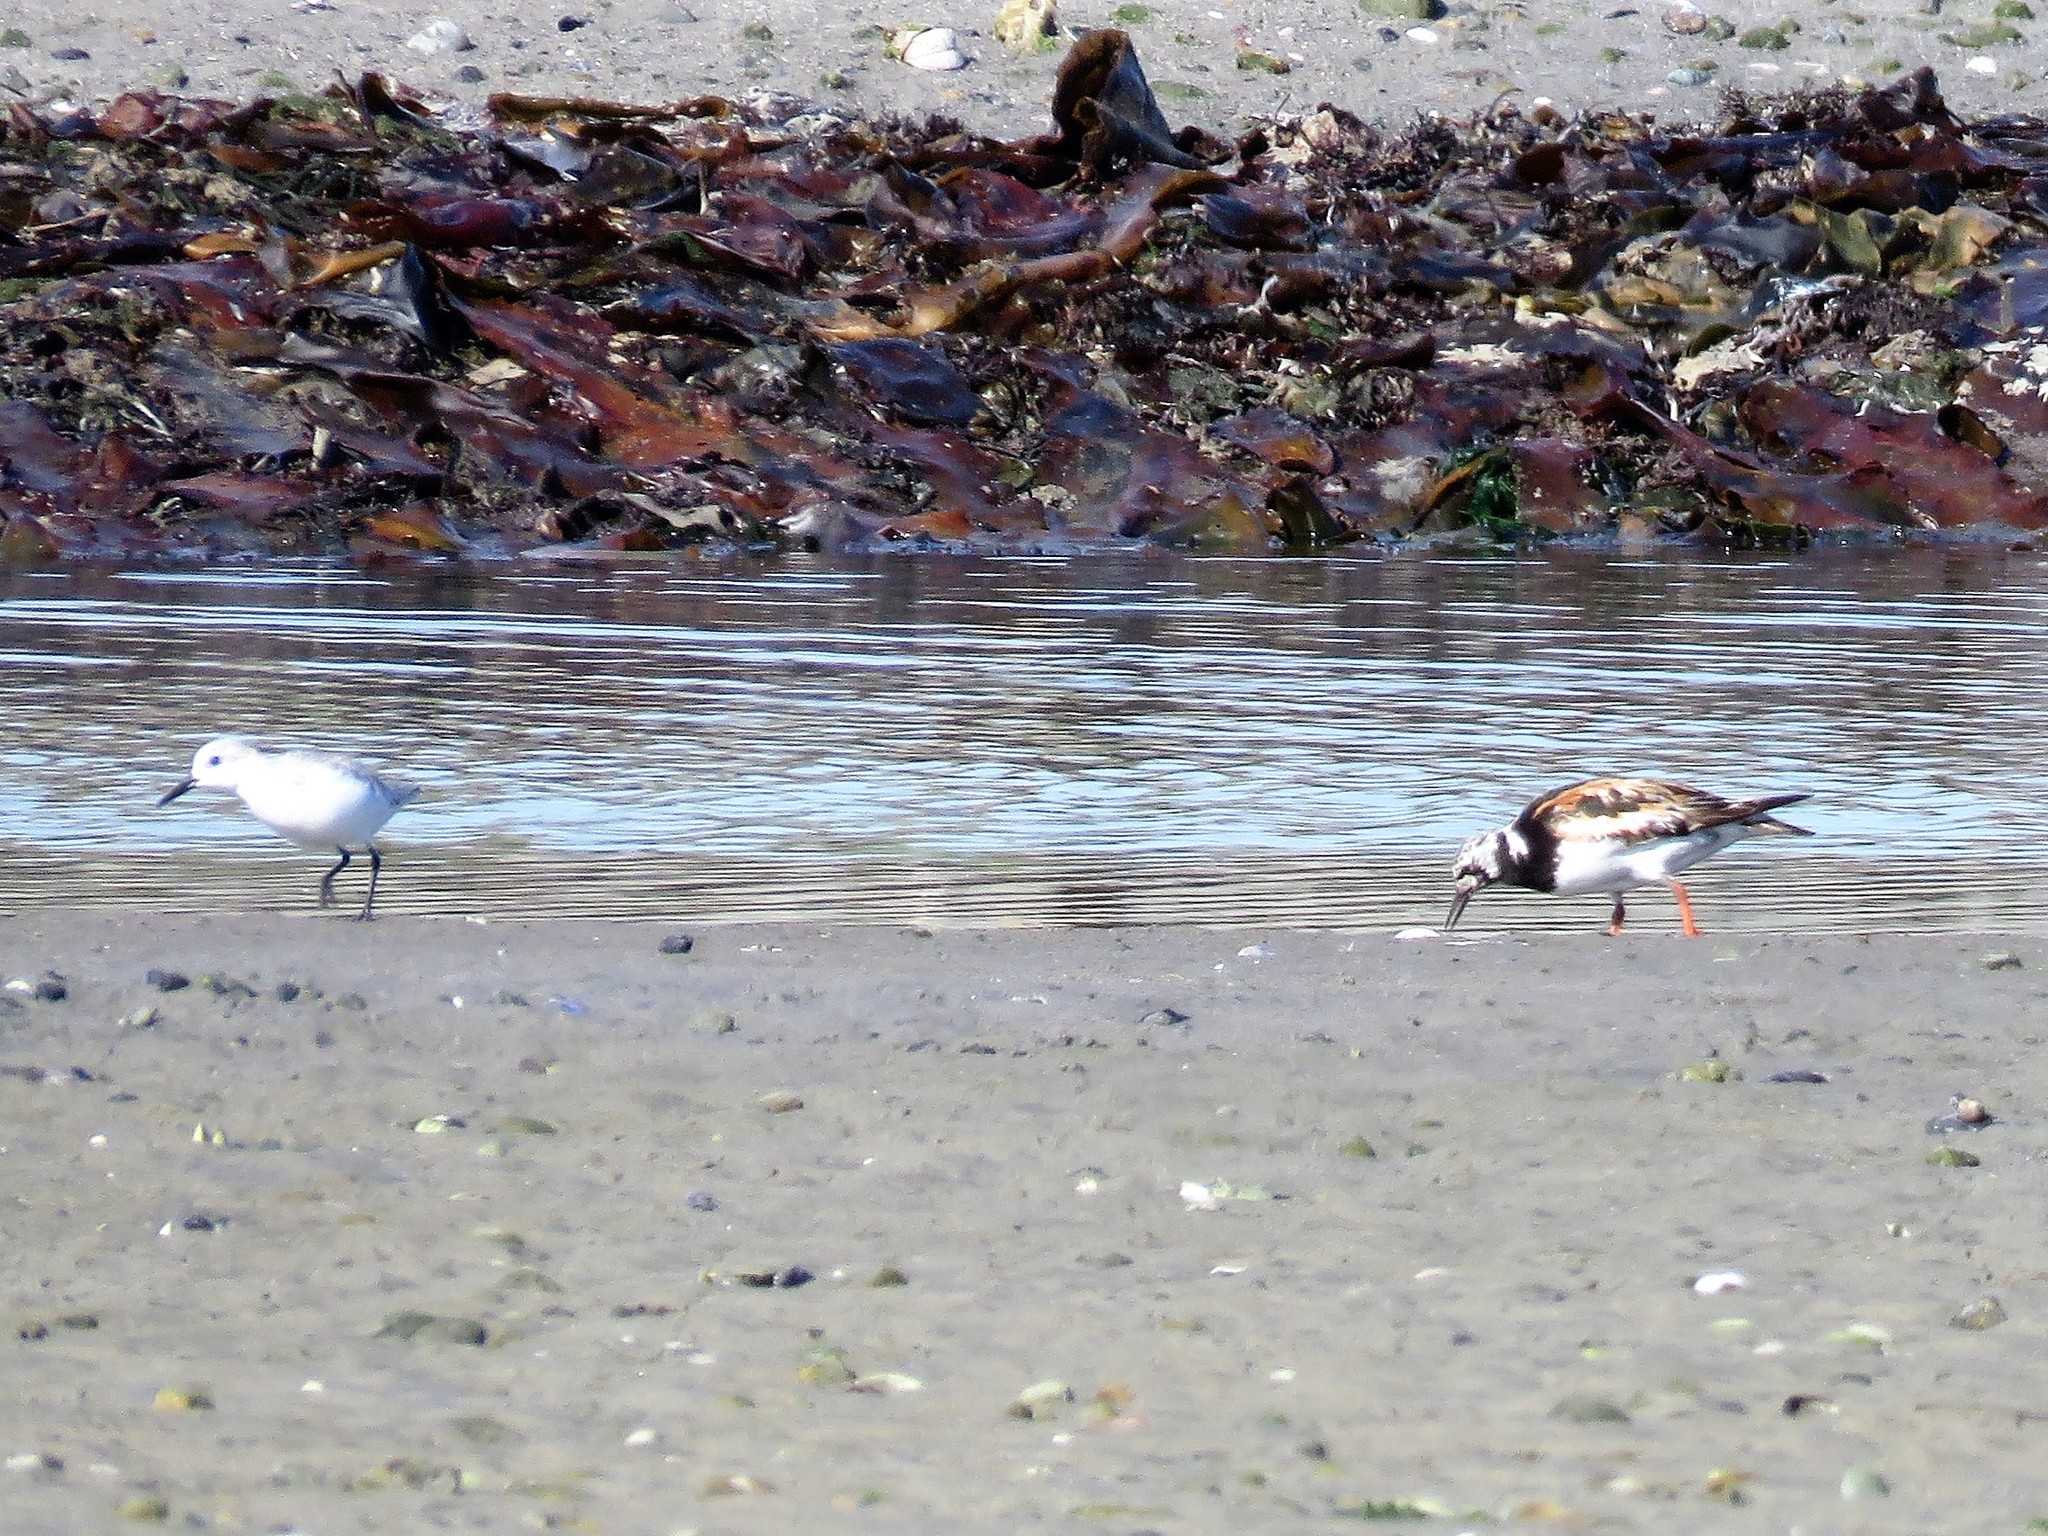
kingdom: Animalia
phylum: Chordata
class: Aves
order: Charadriiformes
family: Scolopacidae
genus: Arenaria
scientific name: Arenaria interpres
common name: Ruddy turnstone
